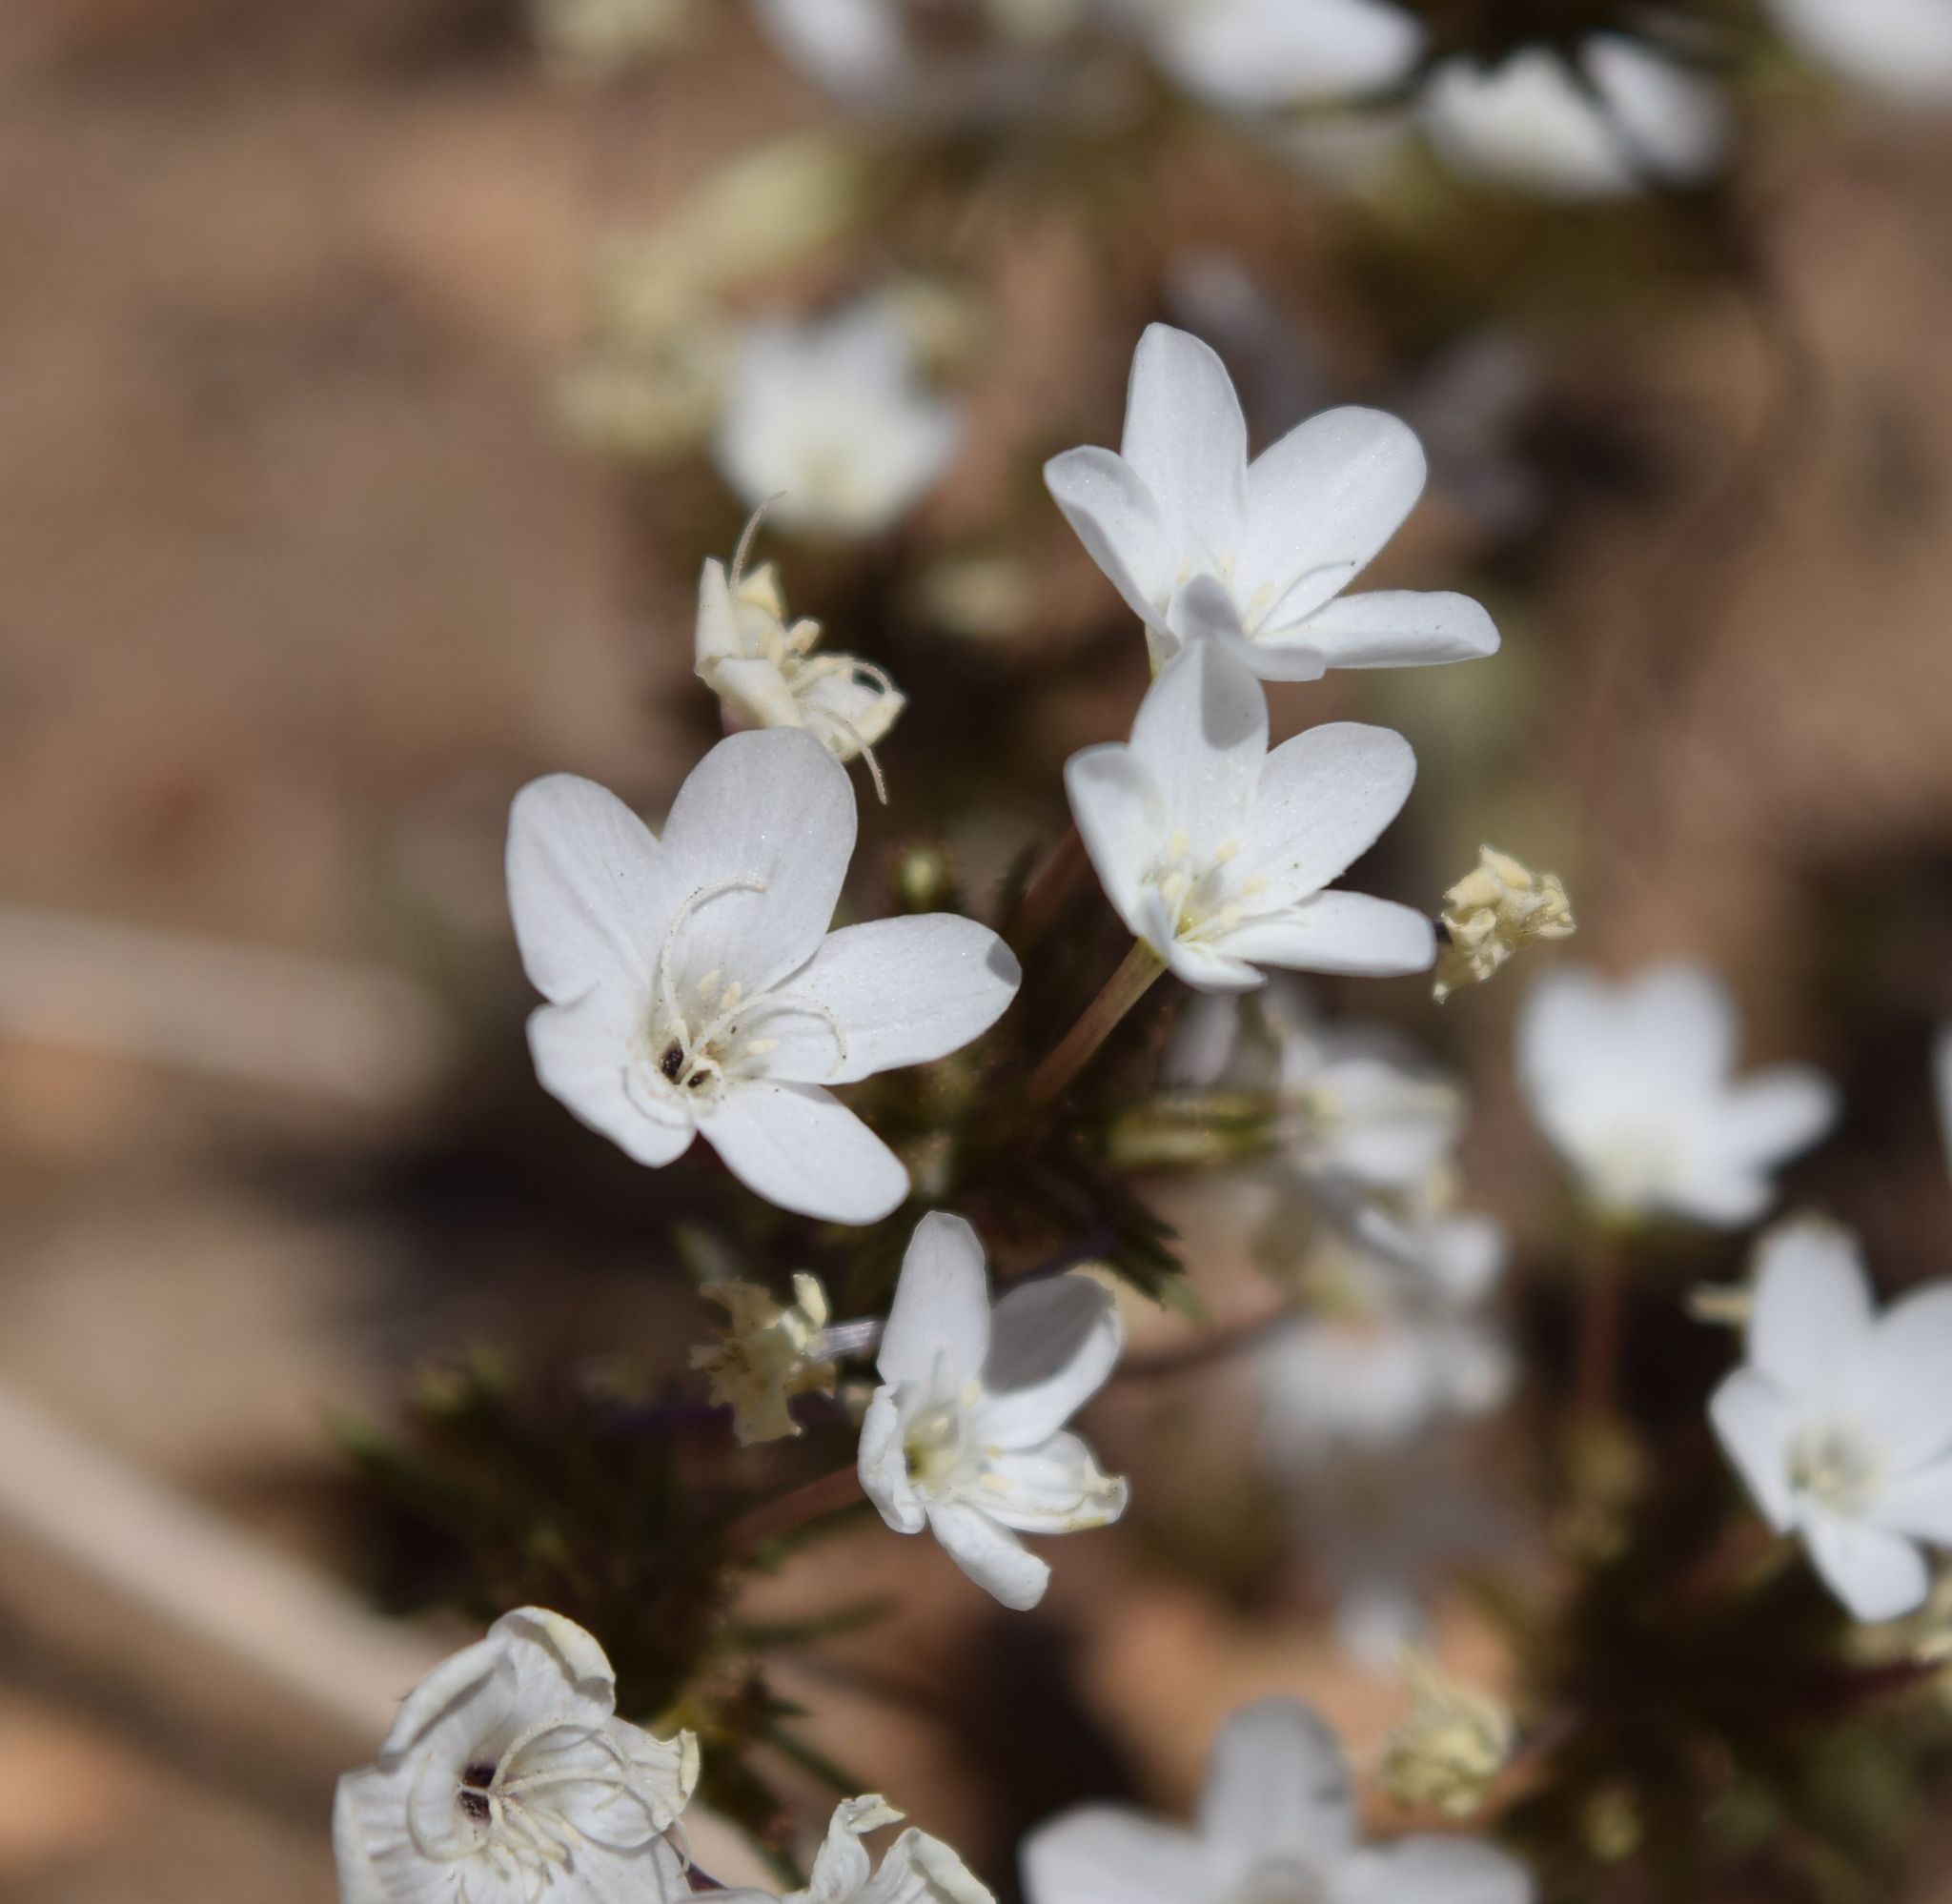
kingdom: Plantae
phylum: Tracheophyta
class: Magnoliopsida
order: Ericales
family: Polemoniaceae
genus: Leptosiphon
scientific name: Leptosiphon breviculus
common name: Mojave linanthus
